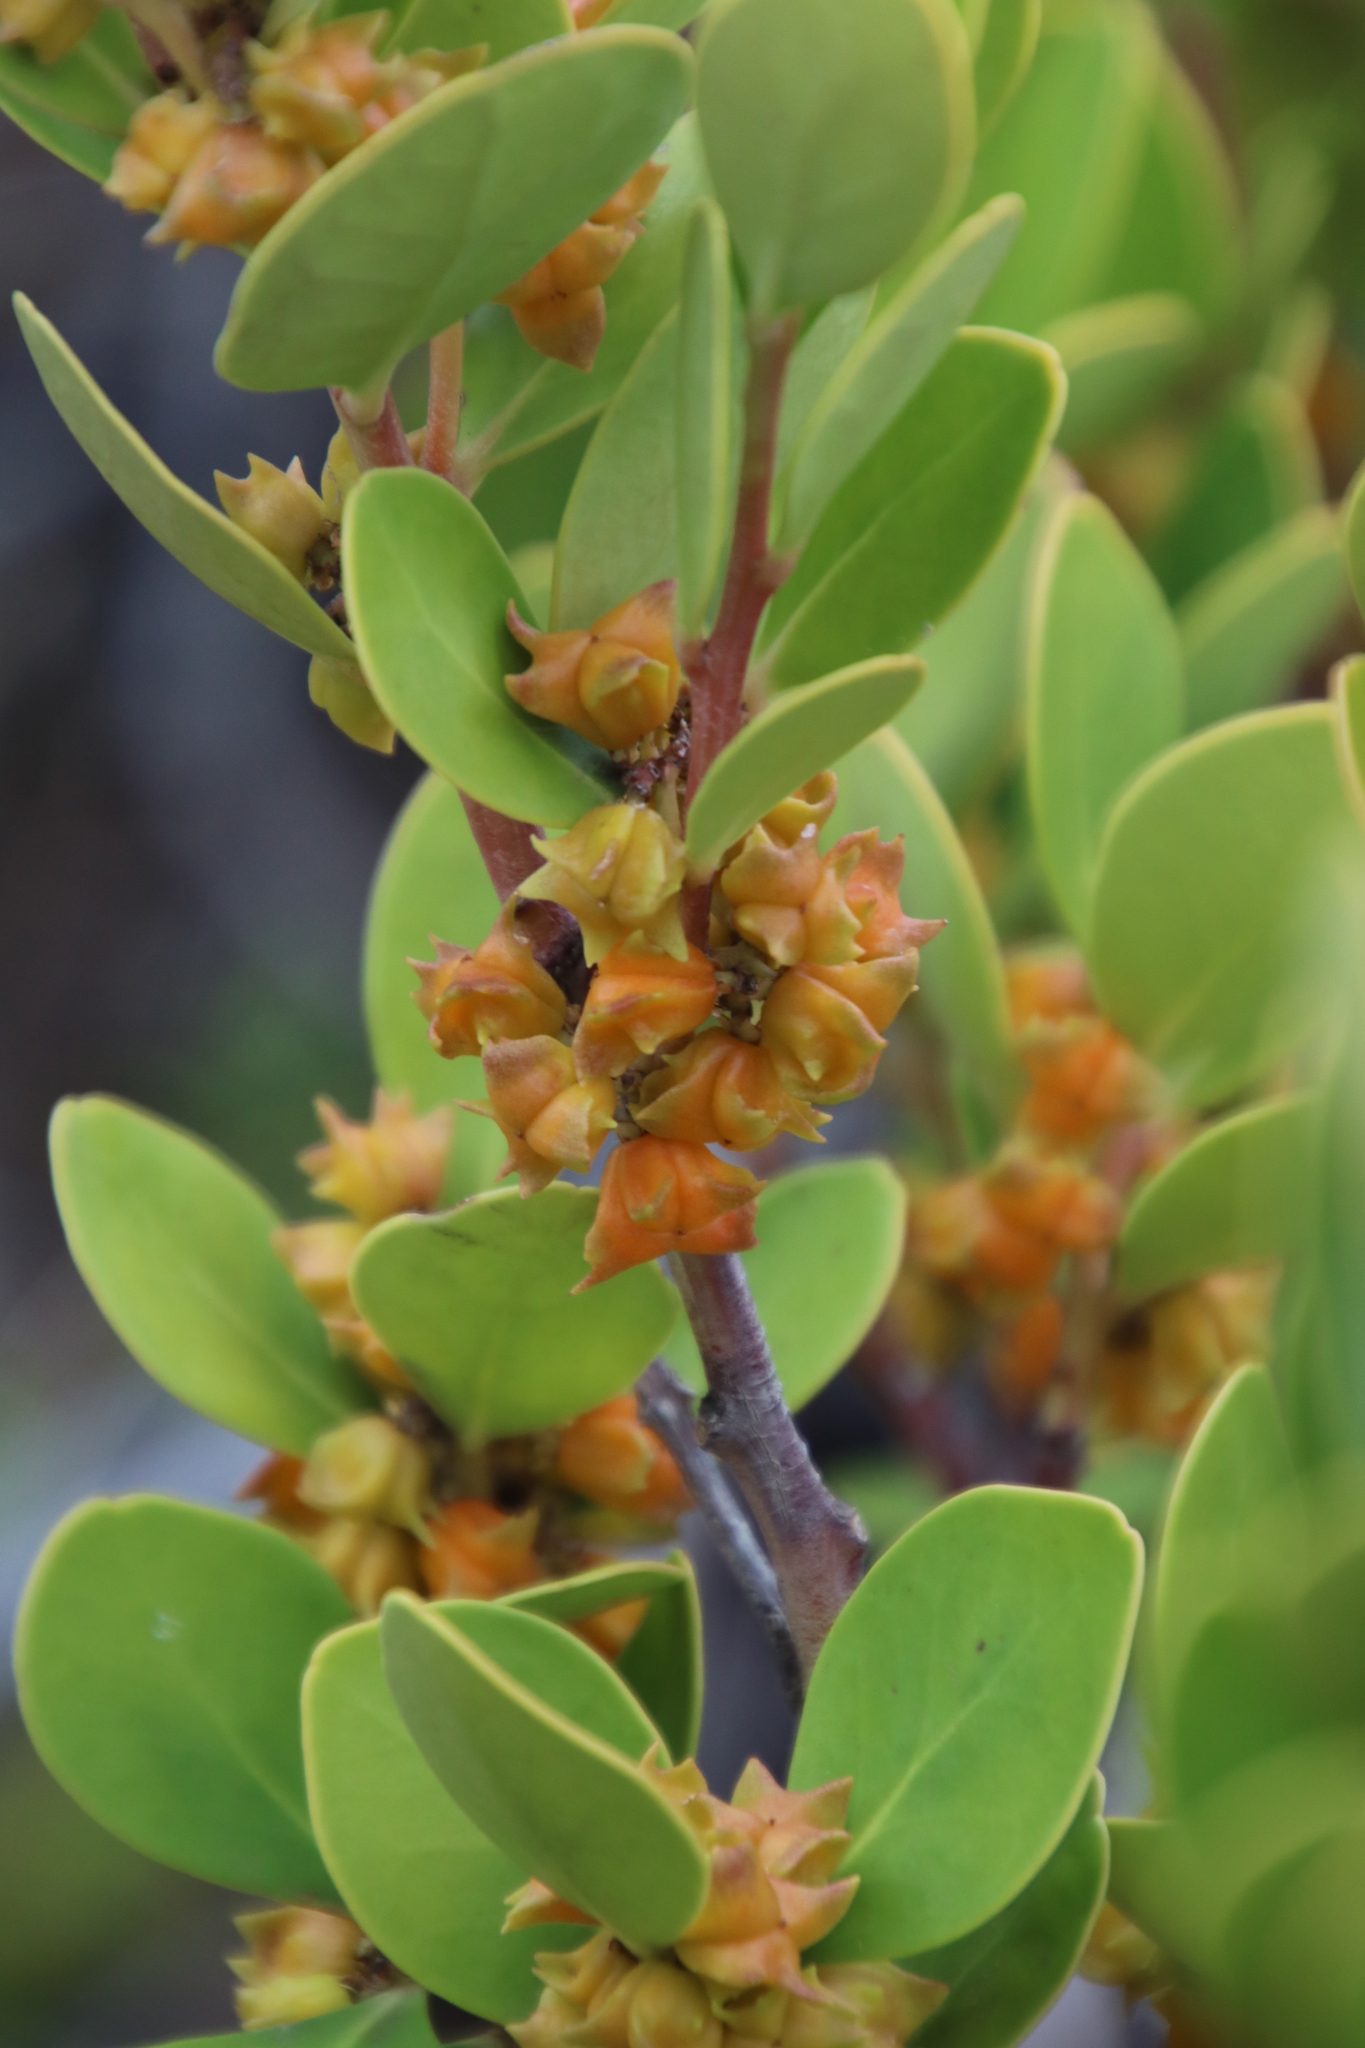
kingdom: Plantae
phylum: Tracheophyta
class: Magnoliopsida
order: Celastrales
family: Celastraceae
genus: Pterocelastrus
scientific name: Pterocelastrus tricuspidatus
